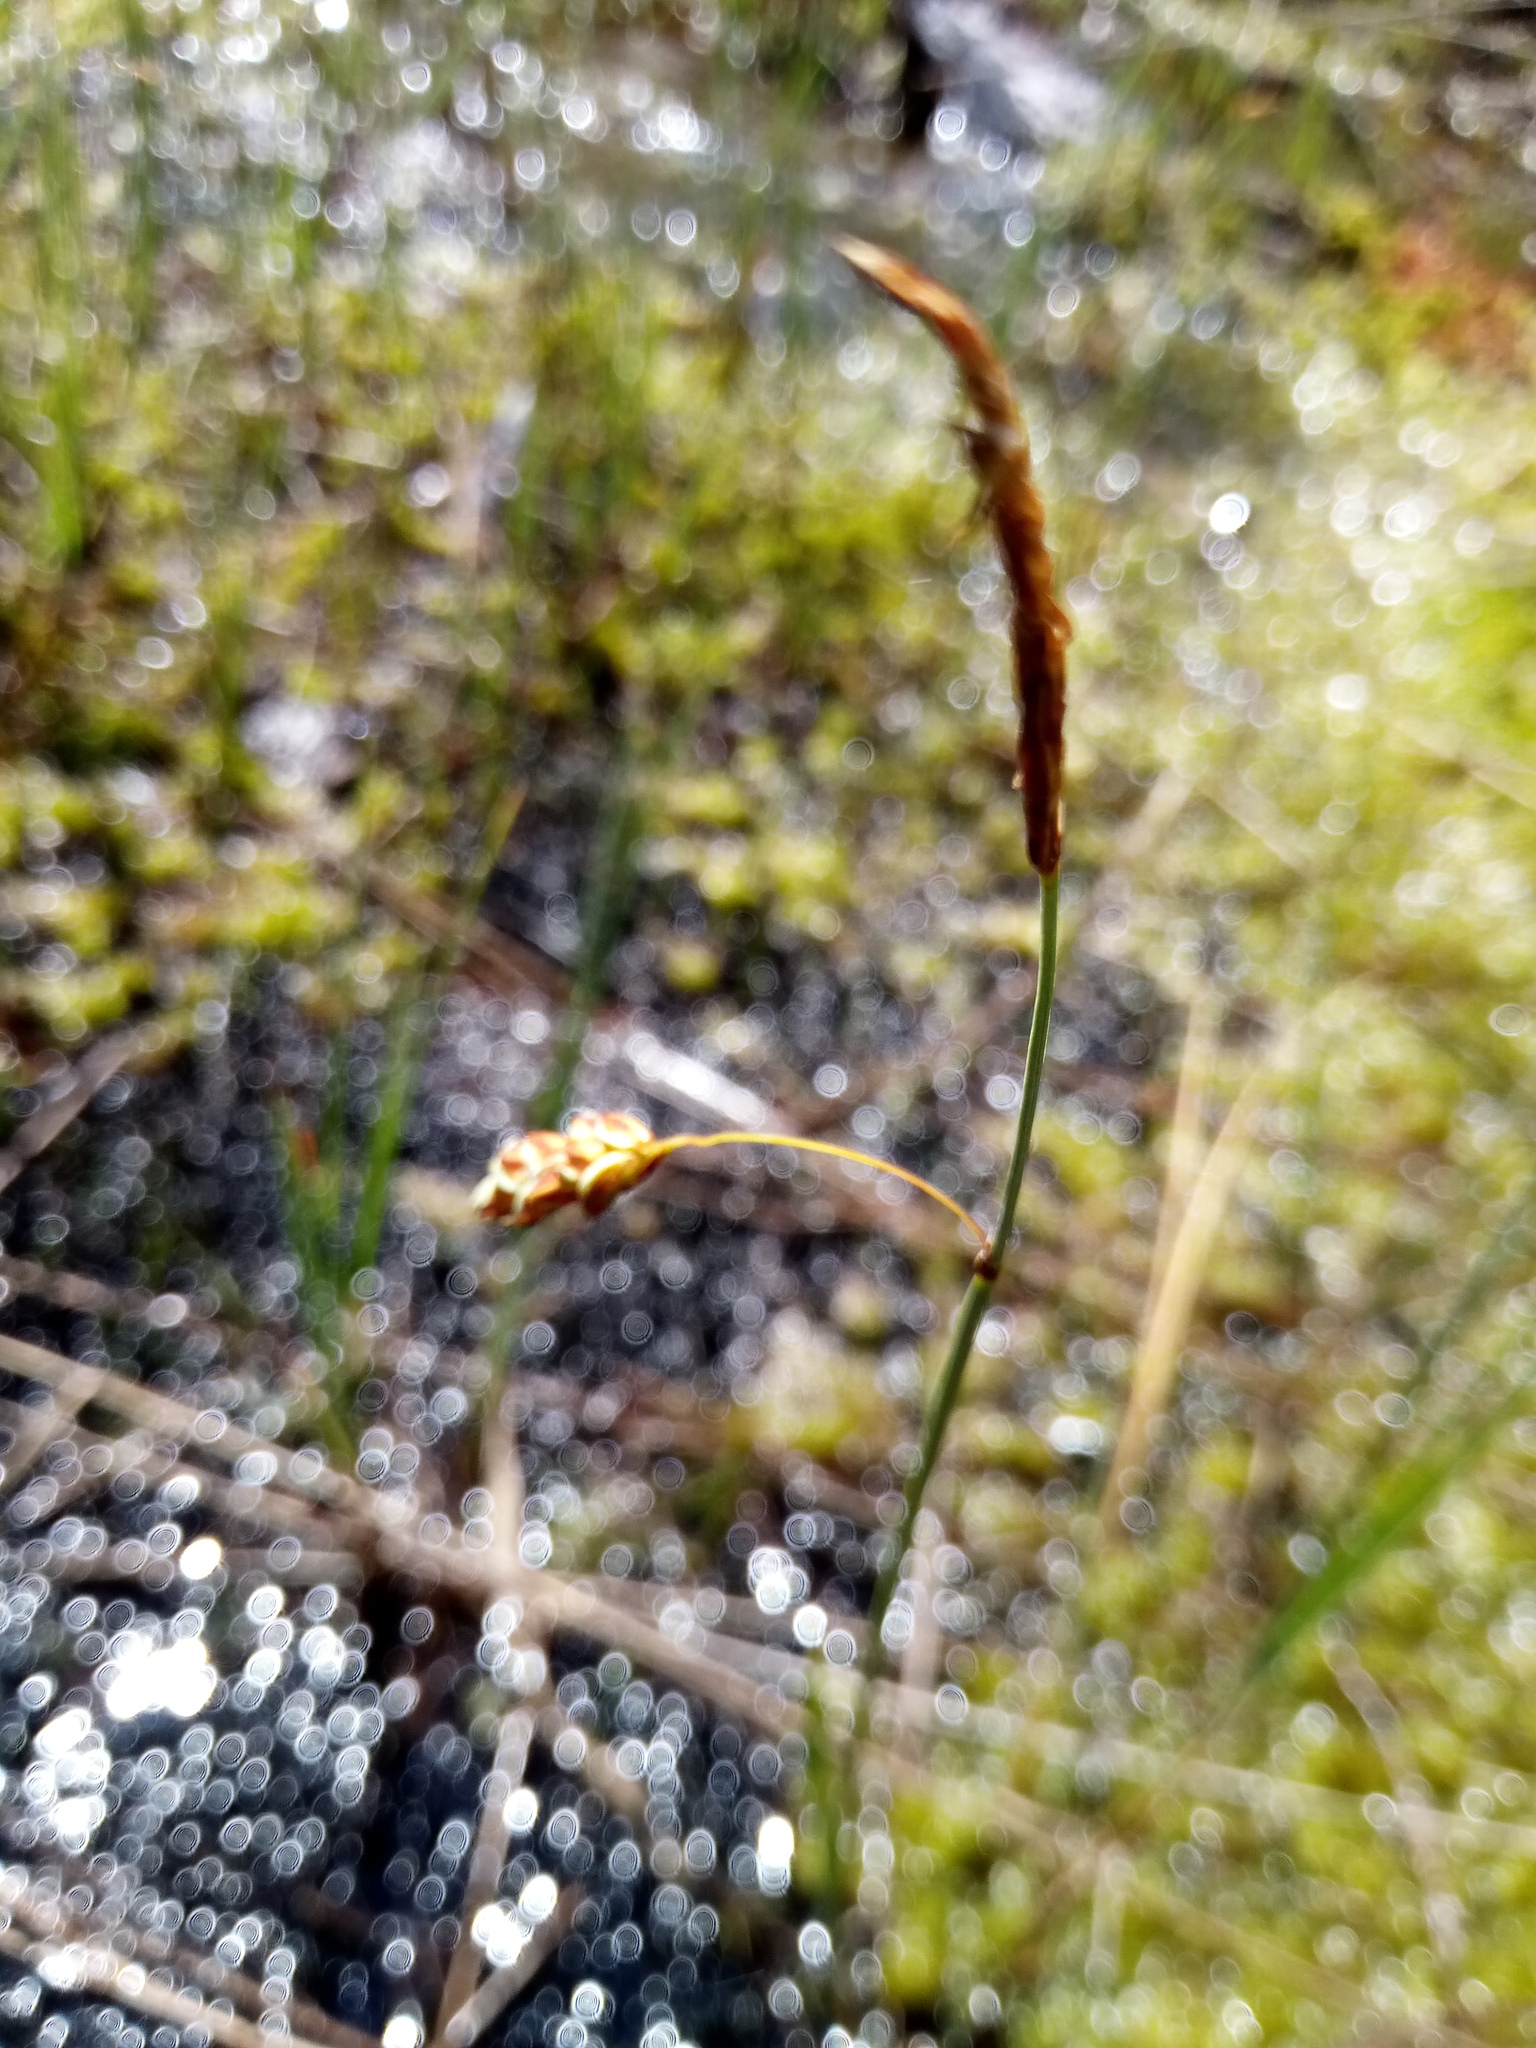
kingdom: Plantae
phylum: Tracheophyta
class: Liliopsida
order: Poales
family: Cyperaceae
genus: Carex
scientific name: Carex limosa
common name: Bog sedge
